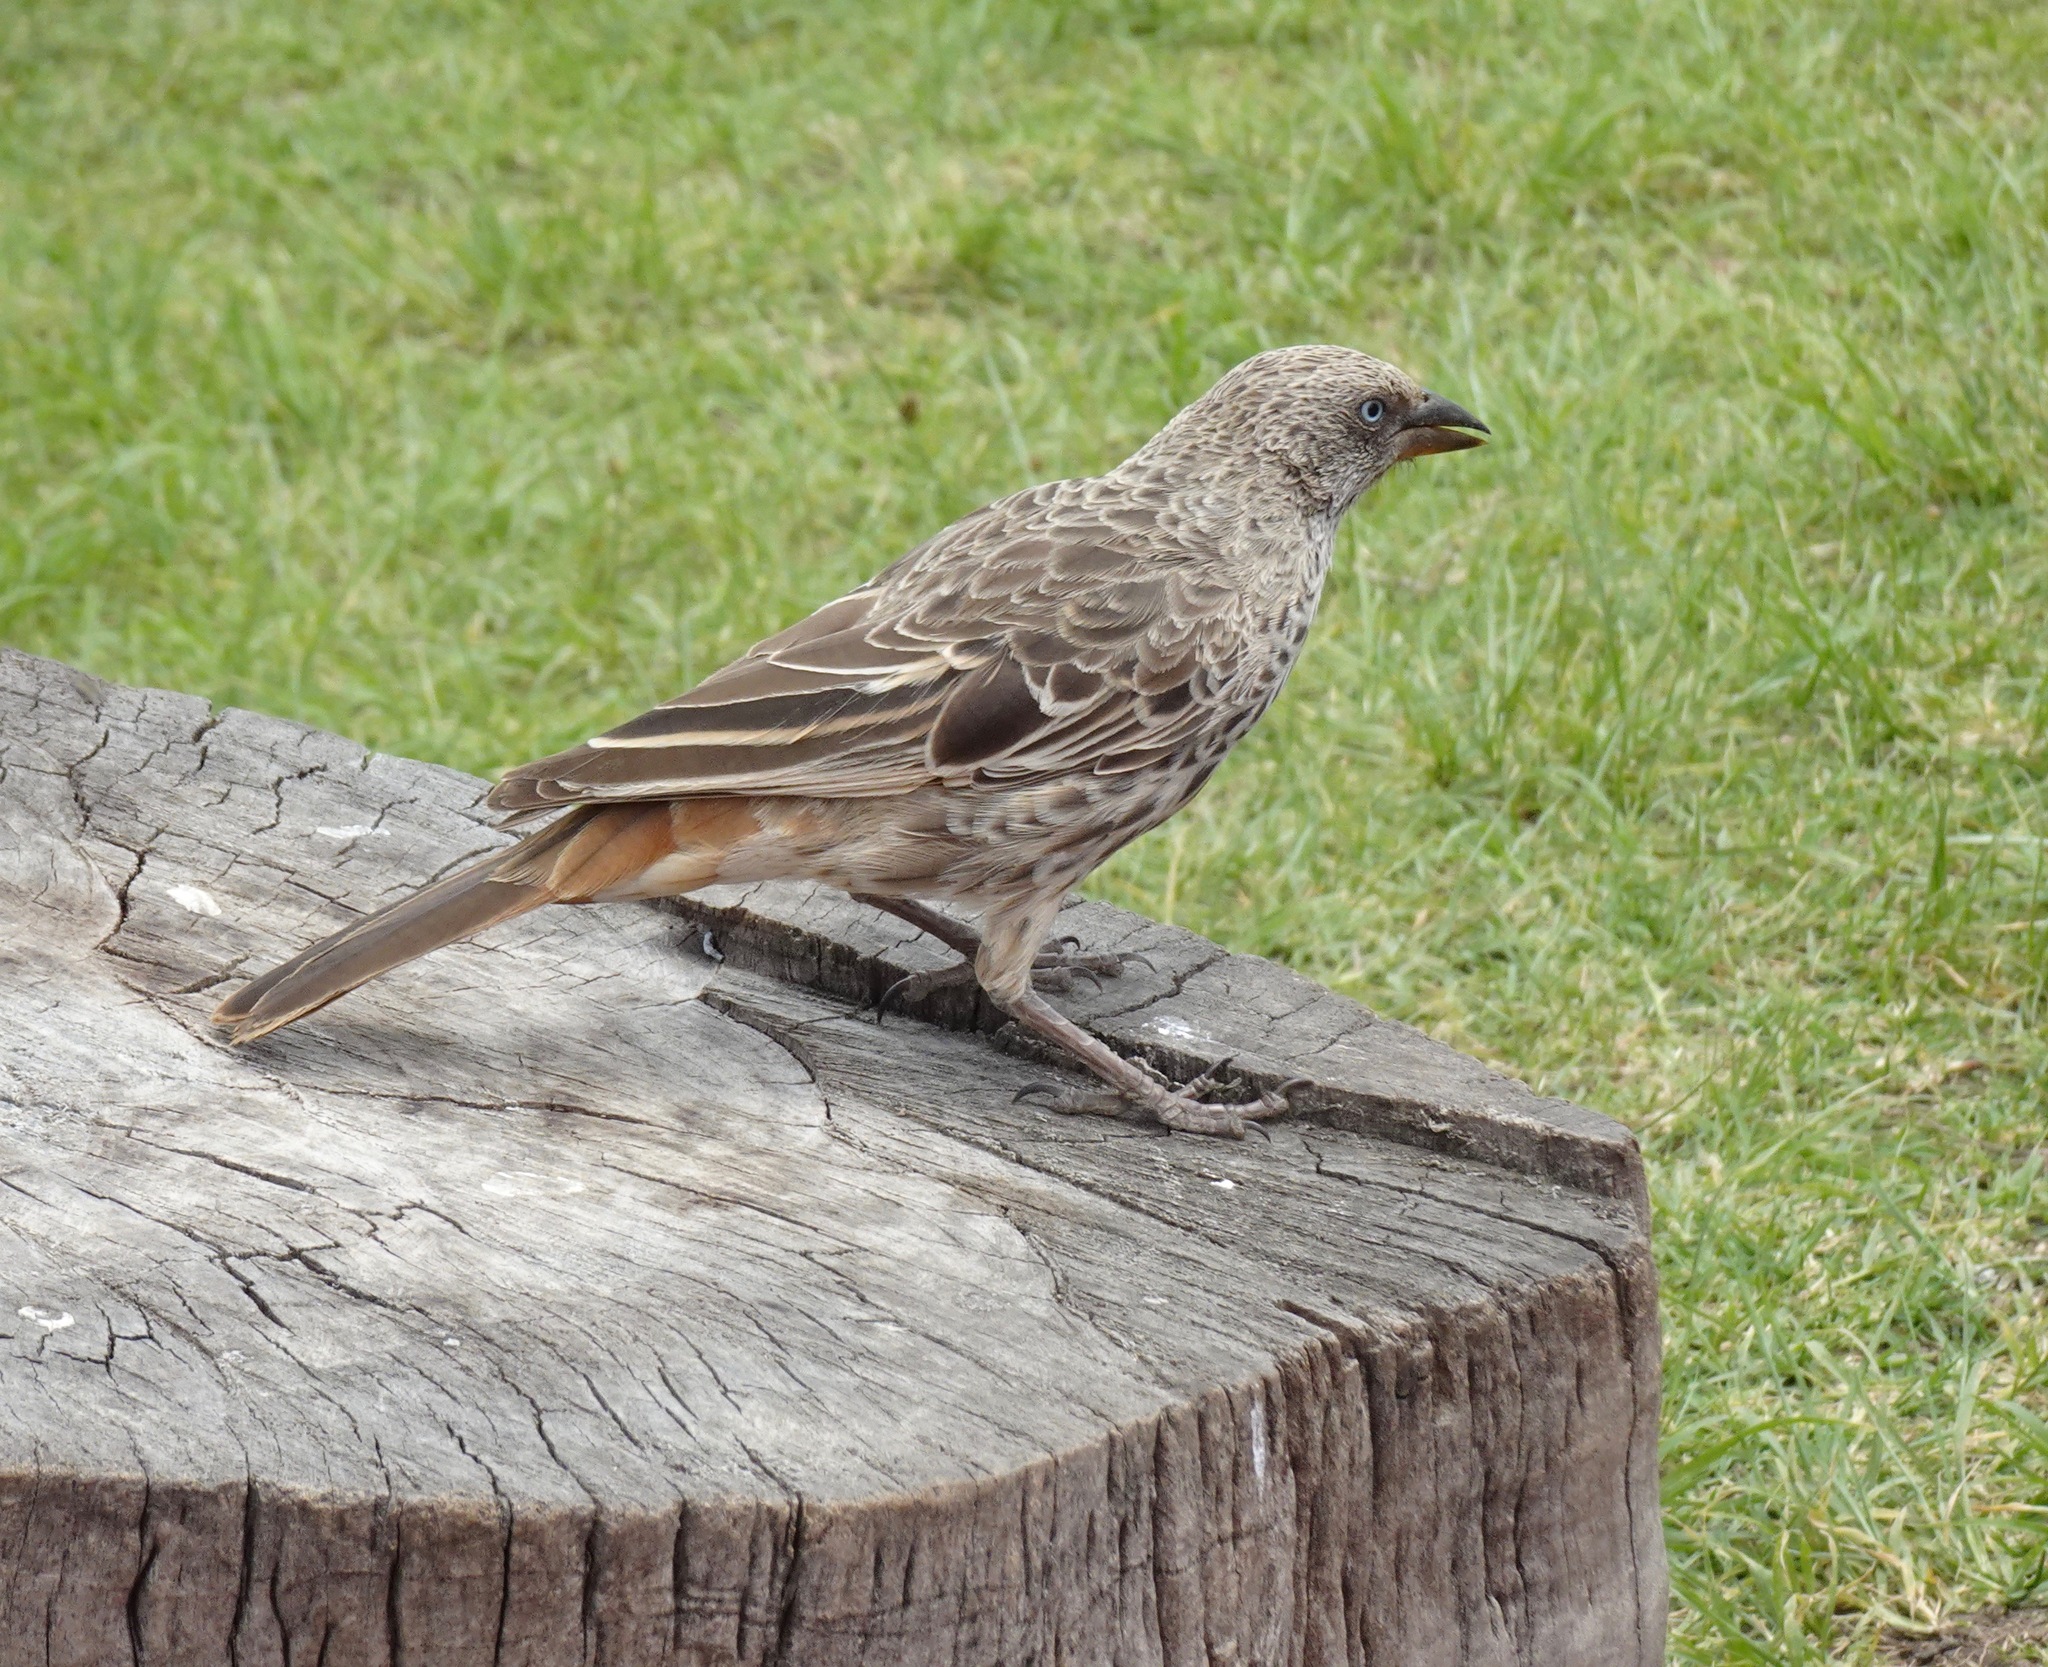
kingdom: Animalia
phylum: Chordata
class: Aves
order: Passeriformes
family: Passeridae
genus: Histurgops
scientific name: Histurgops ruficauda
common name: Rufous-tailed weaver
